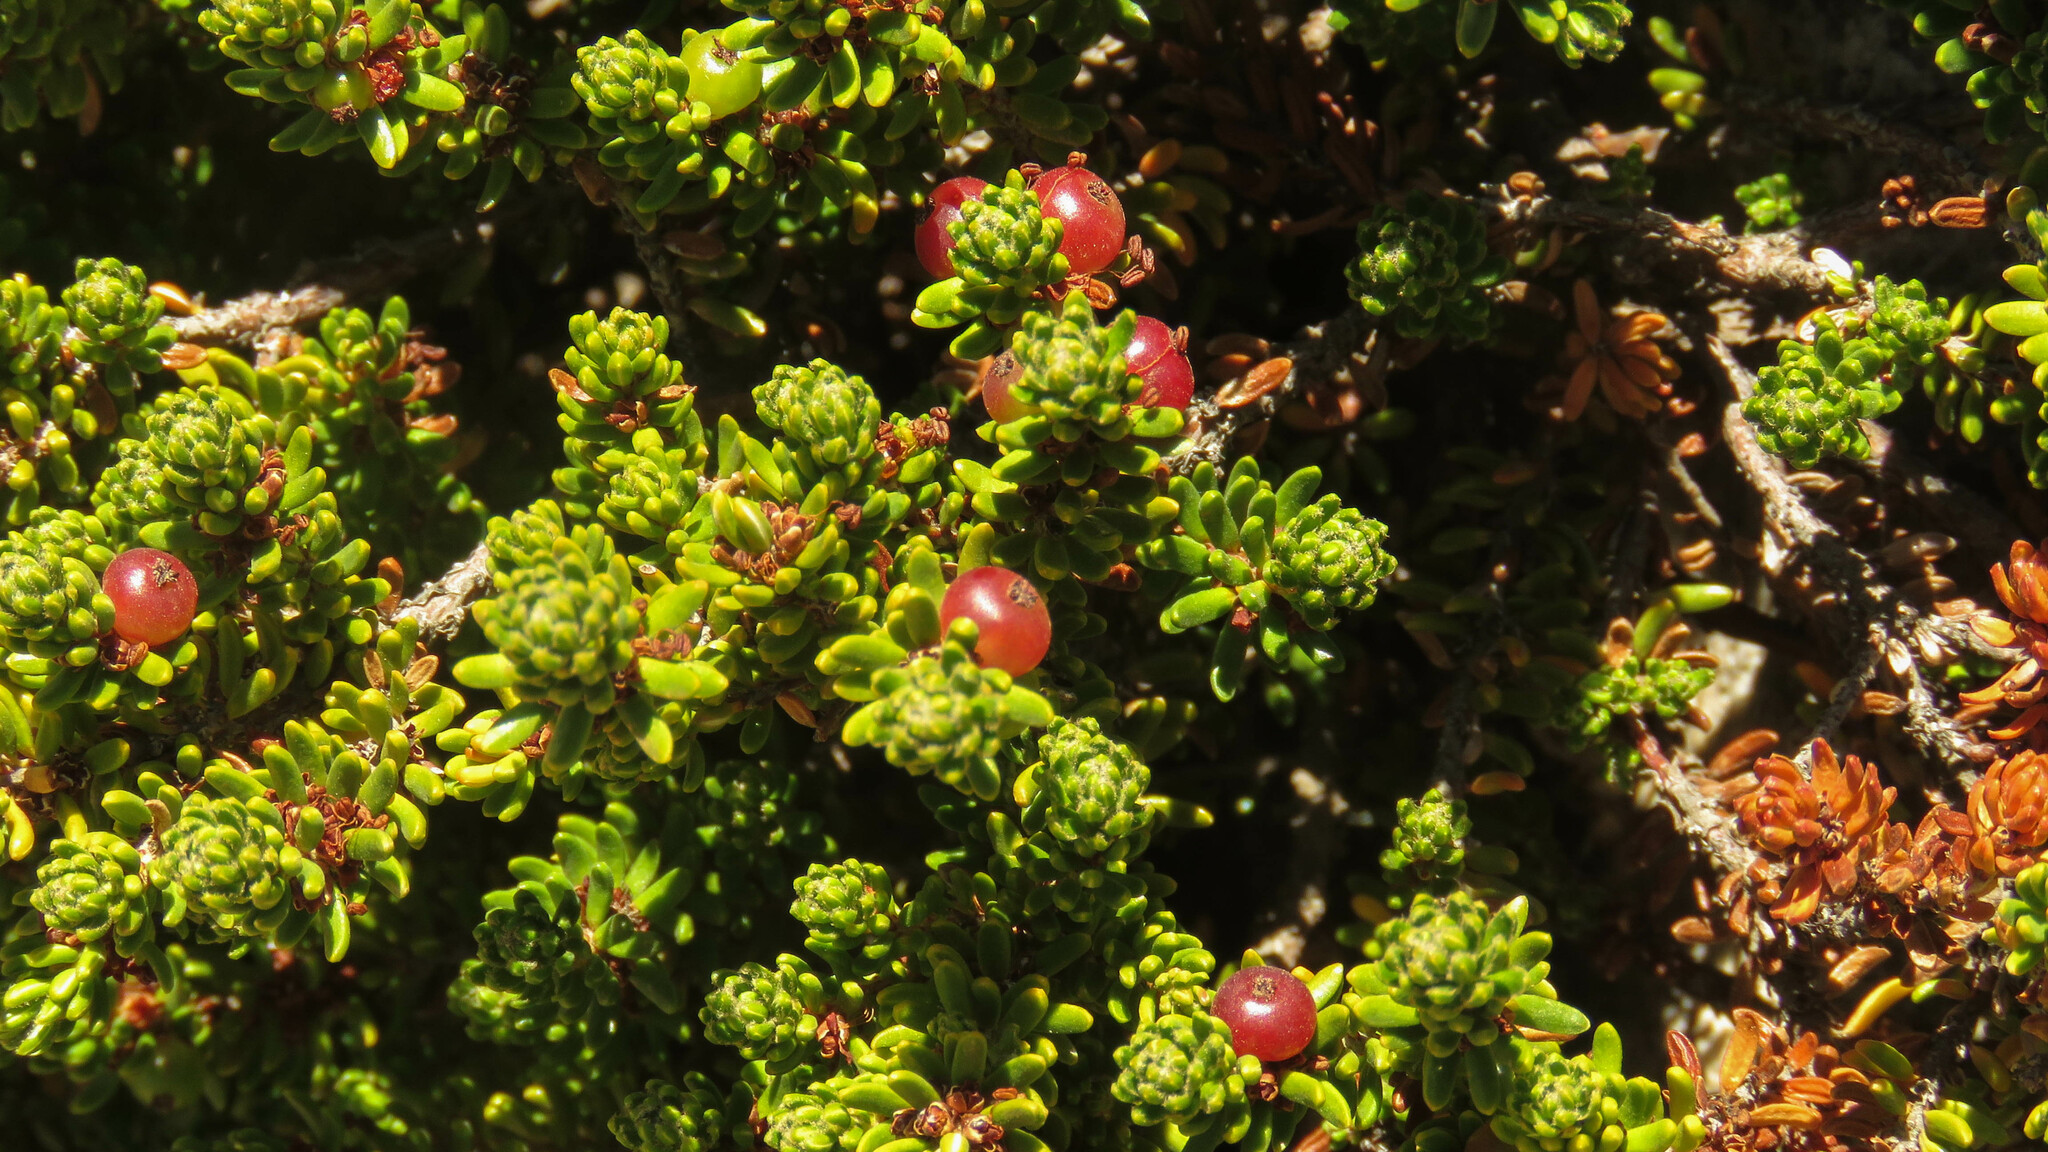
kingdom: Plantae
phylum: Tracheophyta
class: Magnoliopsida
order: Ericales
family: Ericaceae
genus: Empetrum
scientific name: Empetrum rubrum
